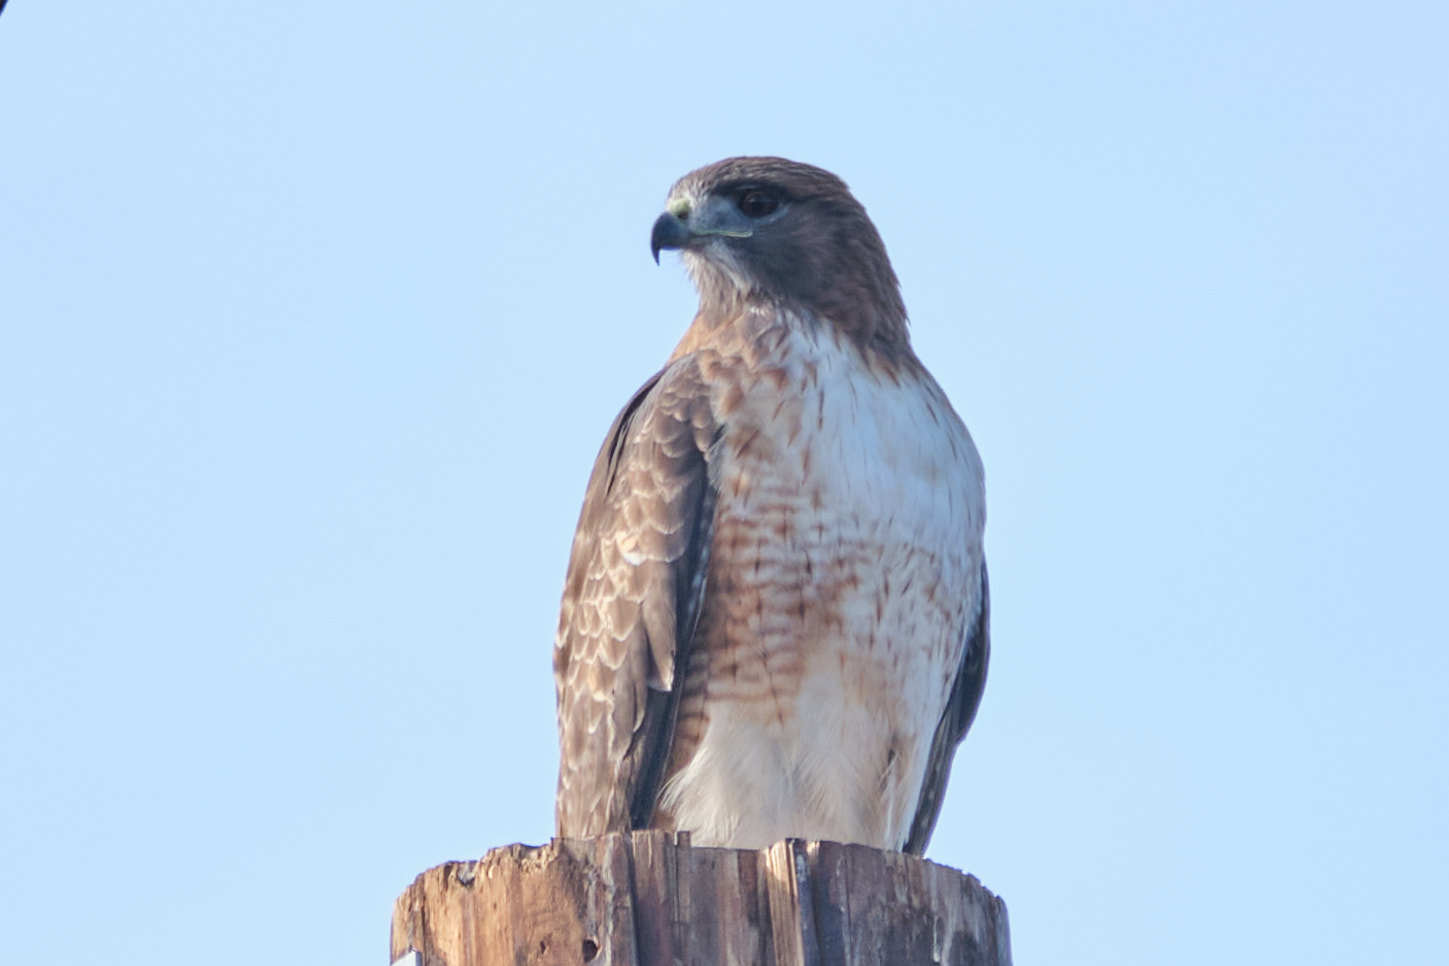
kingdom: Animalia
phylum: Chordata
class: Aves
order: Accipitriformes
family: Accipitridae
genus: Buteo
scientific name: Buteo jamaicensis
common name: Red-tailed hawk
